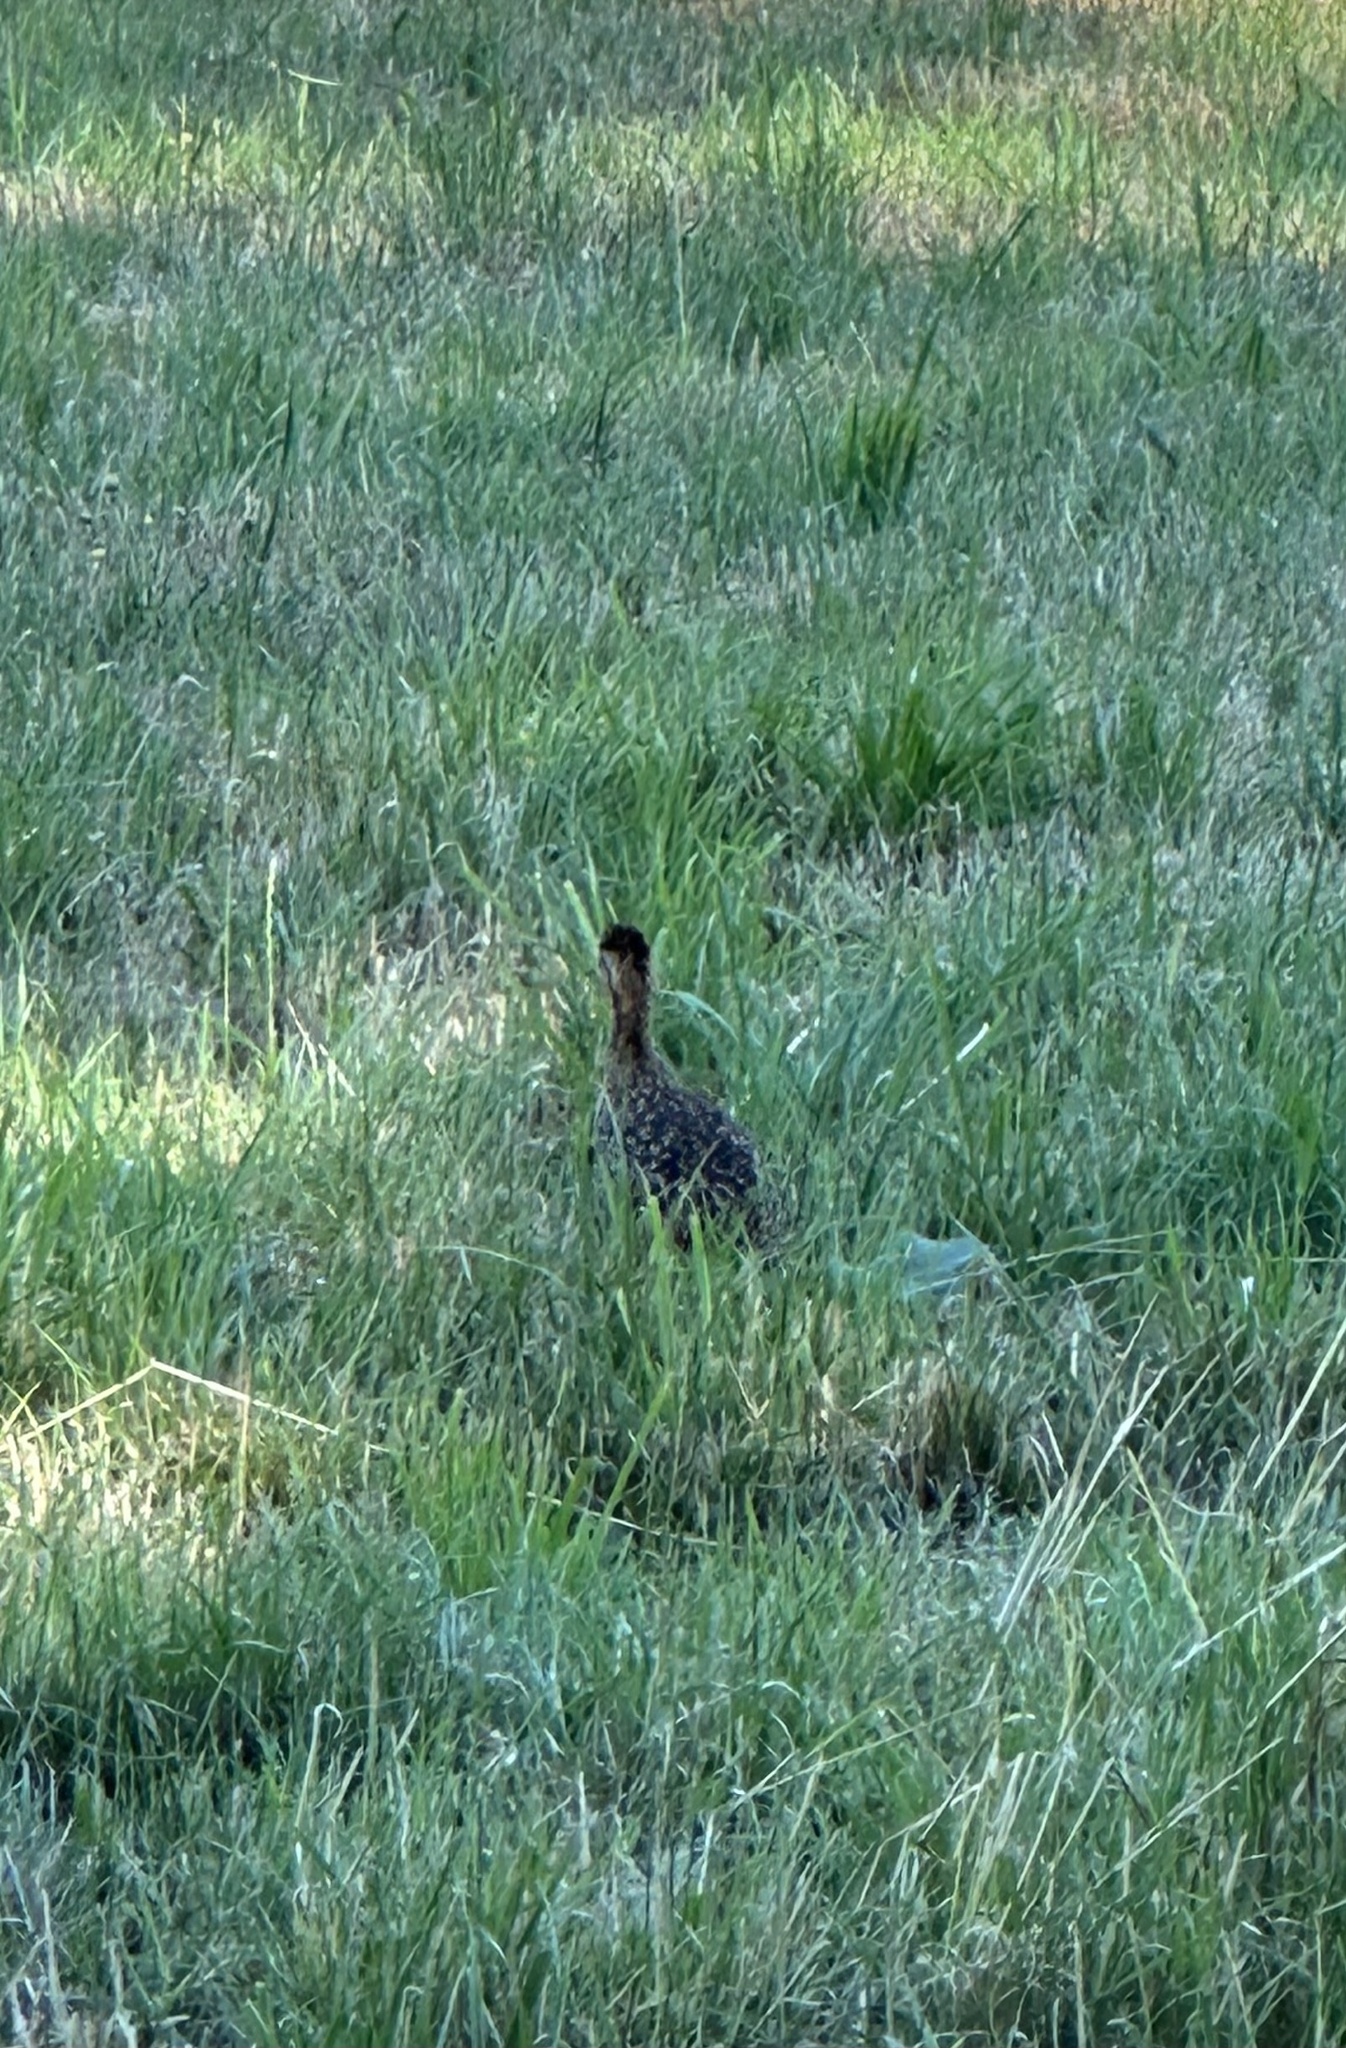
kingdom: Animalia
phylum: Chordata
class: Aves
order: Tinamiformes
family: Tinamidae
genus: Nothoprocta
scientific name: Nothoprocta perdicaria
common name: Chilean tinamou
